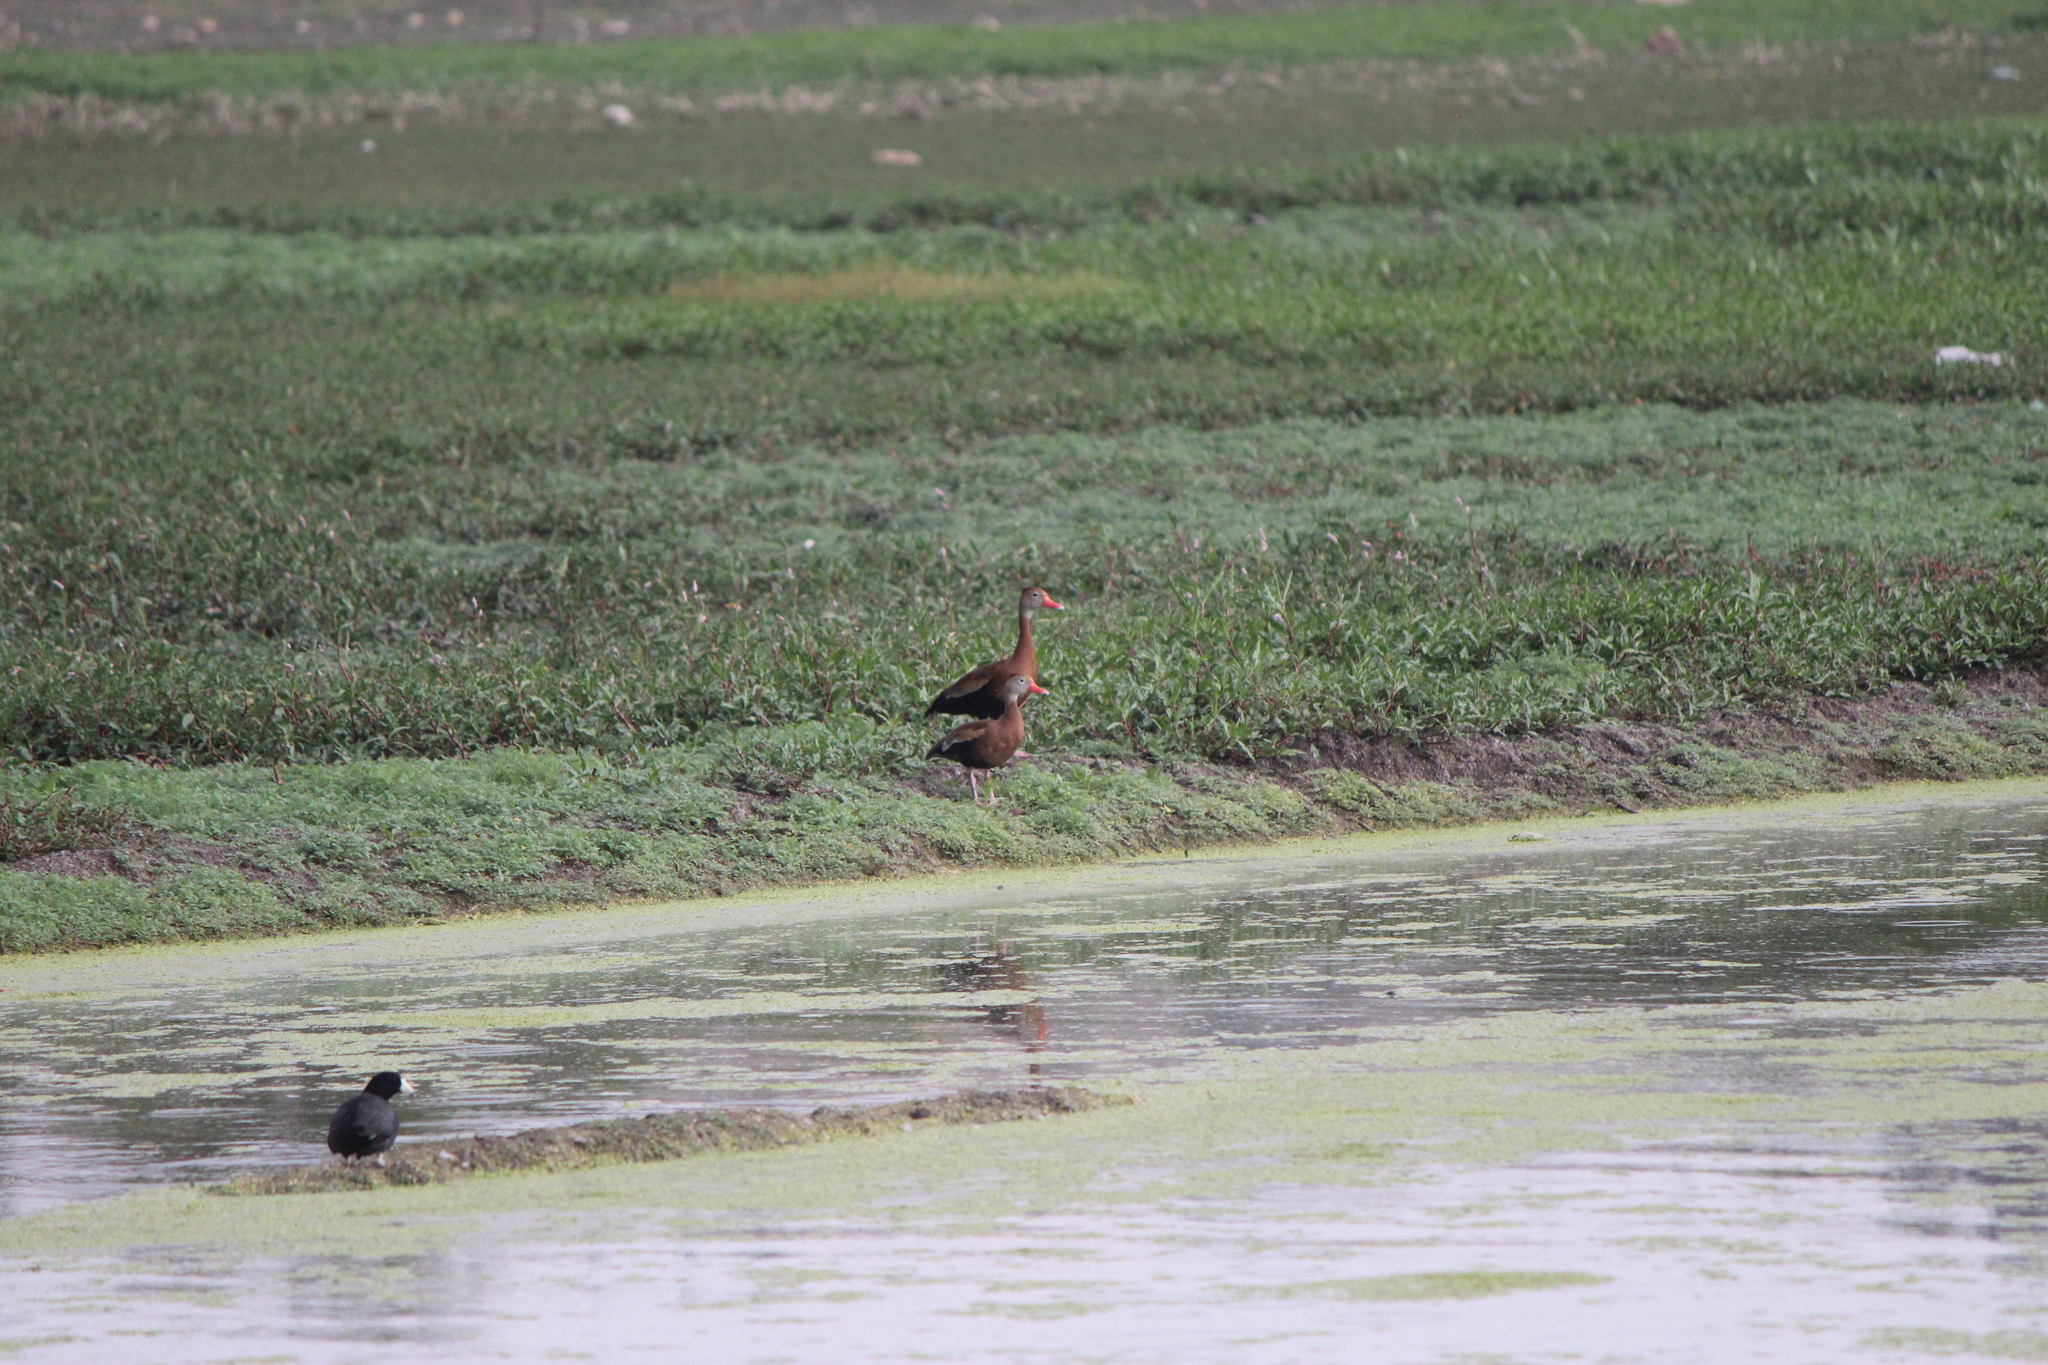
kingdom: Animalia
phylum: Chordata
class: Aves
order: Anseriformes
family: Anatidae
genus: Dendrocygna
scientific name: Dendrocygna autumnalis
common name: Black-bellied whistling duck
